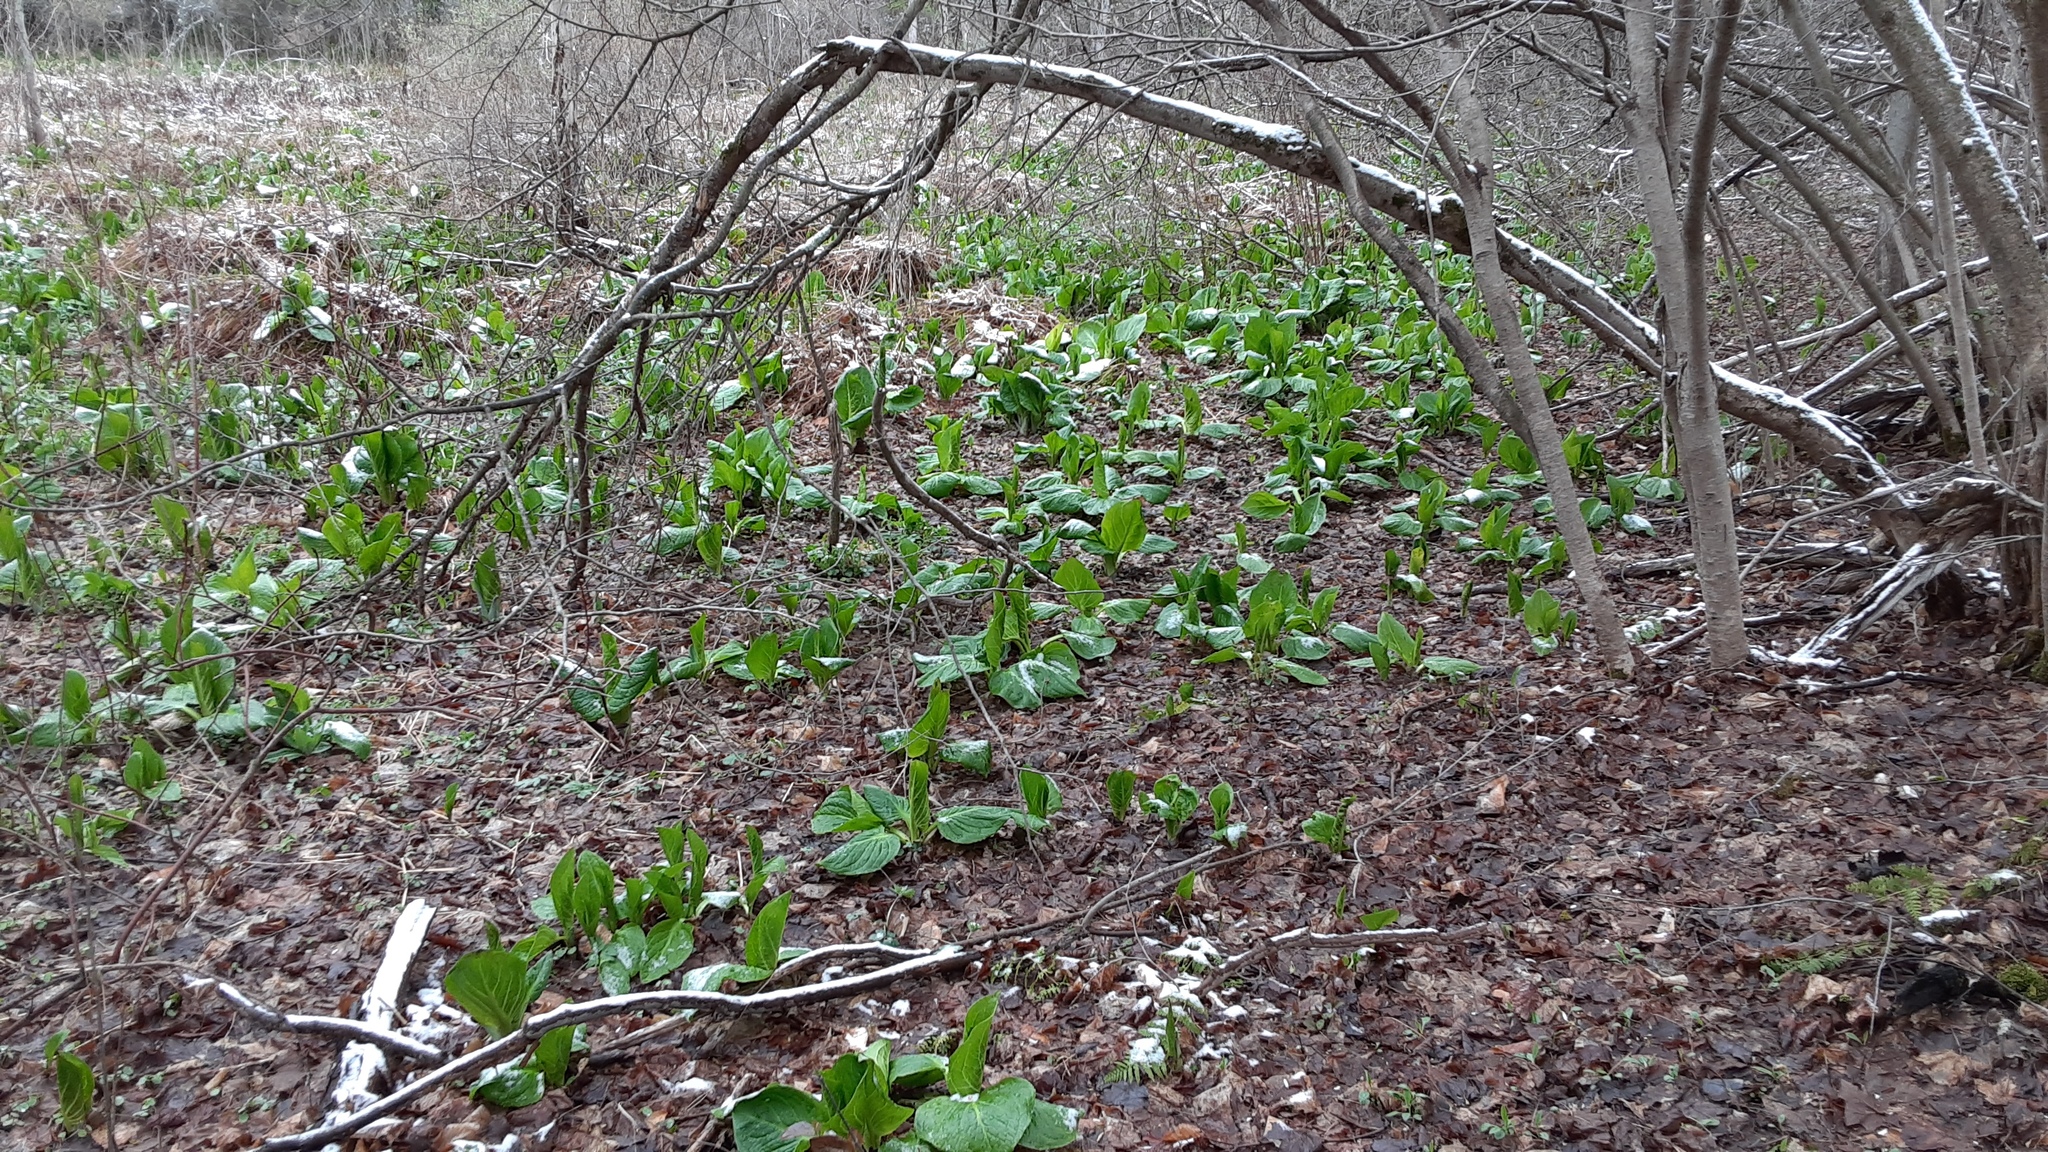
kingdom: Plantae
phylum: Tracheophyta
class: Liliopsida
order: Alismatales
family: Araceae
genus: Symplocarpus
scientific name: Symplocarpus foetidus
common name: Eastern skunk cabbage
